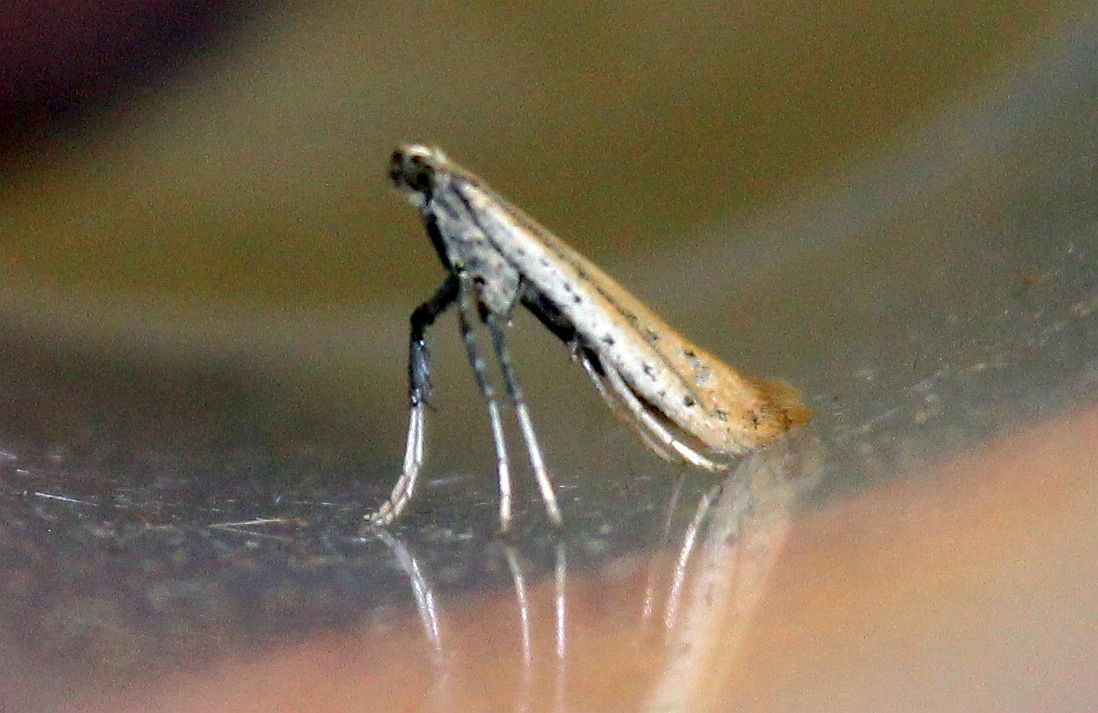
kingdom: Animalia
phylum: Arthropoda
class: Insecta
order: Lepidoptera
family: Gracillariidae
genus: Aspilapteryx
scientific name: Aspilapteryx tringipennella
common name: Ribwort slender
